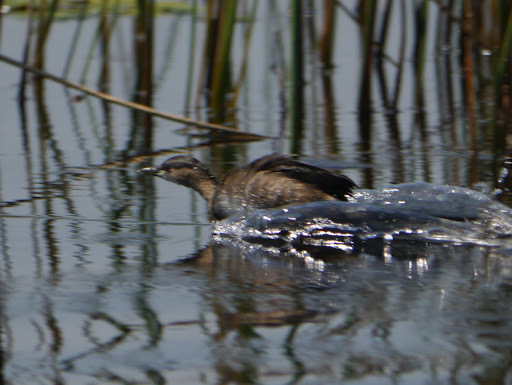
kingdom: Animalia
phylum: Chordata
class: Aves
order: Podicipediformes
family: Podicipedidae
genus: Tachybaptus
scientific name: Tachybaptus ruficollis
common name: Little grebe
